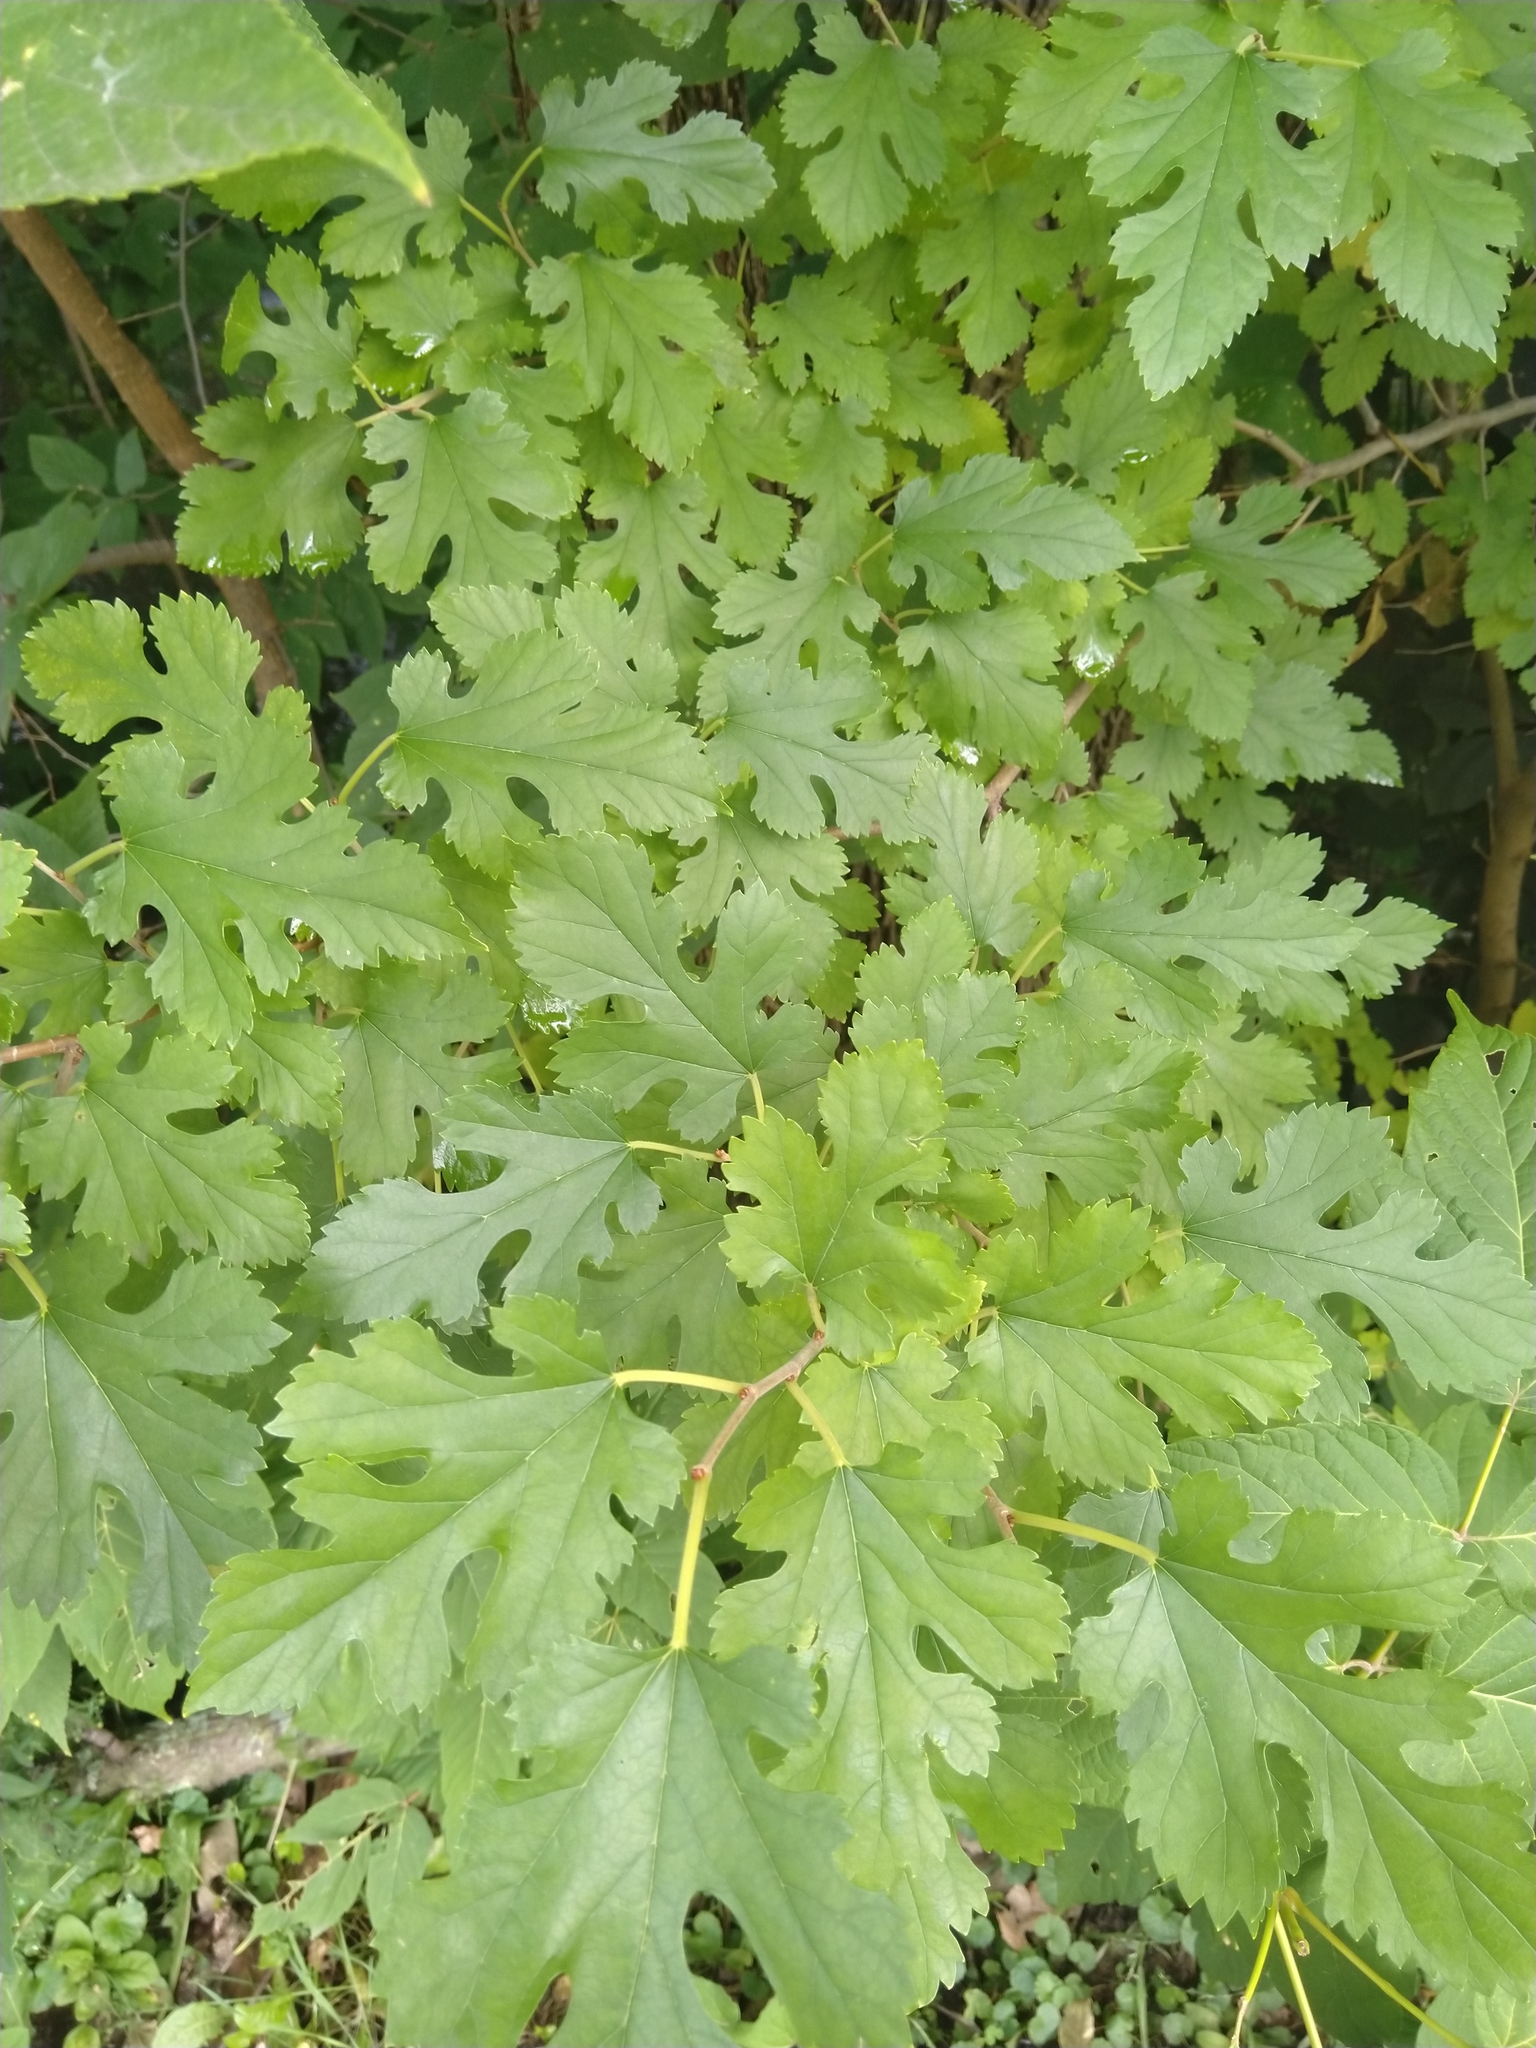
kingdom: Plantae
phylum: Tracheophyta
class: Magnoliopsida
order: Rosales
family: Moraceae
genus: Morus
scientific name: Morus alba
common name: White mulberry
